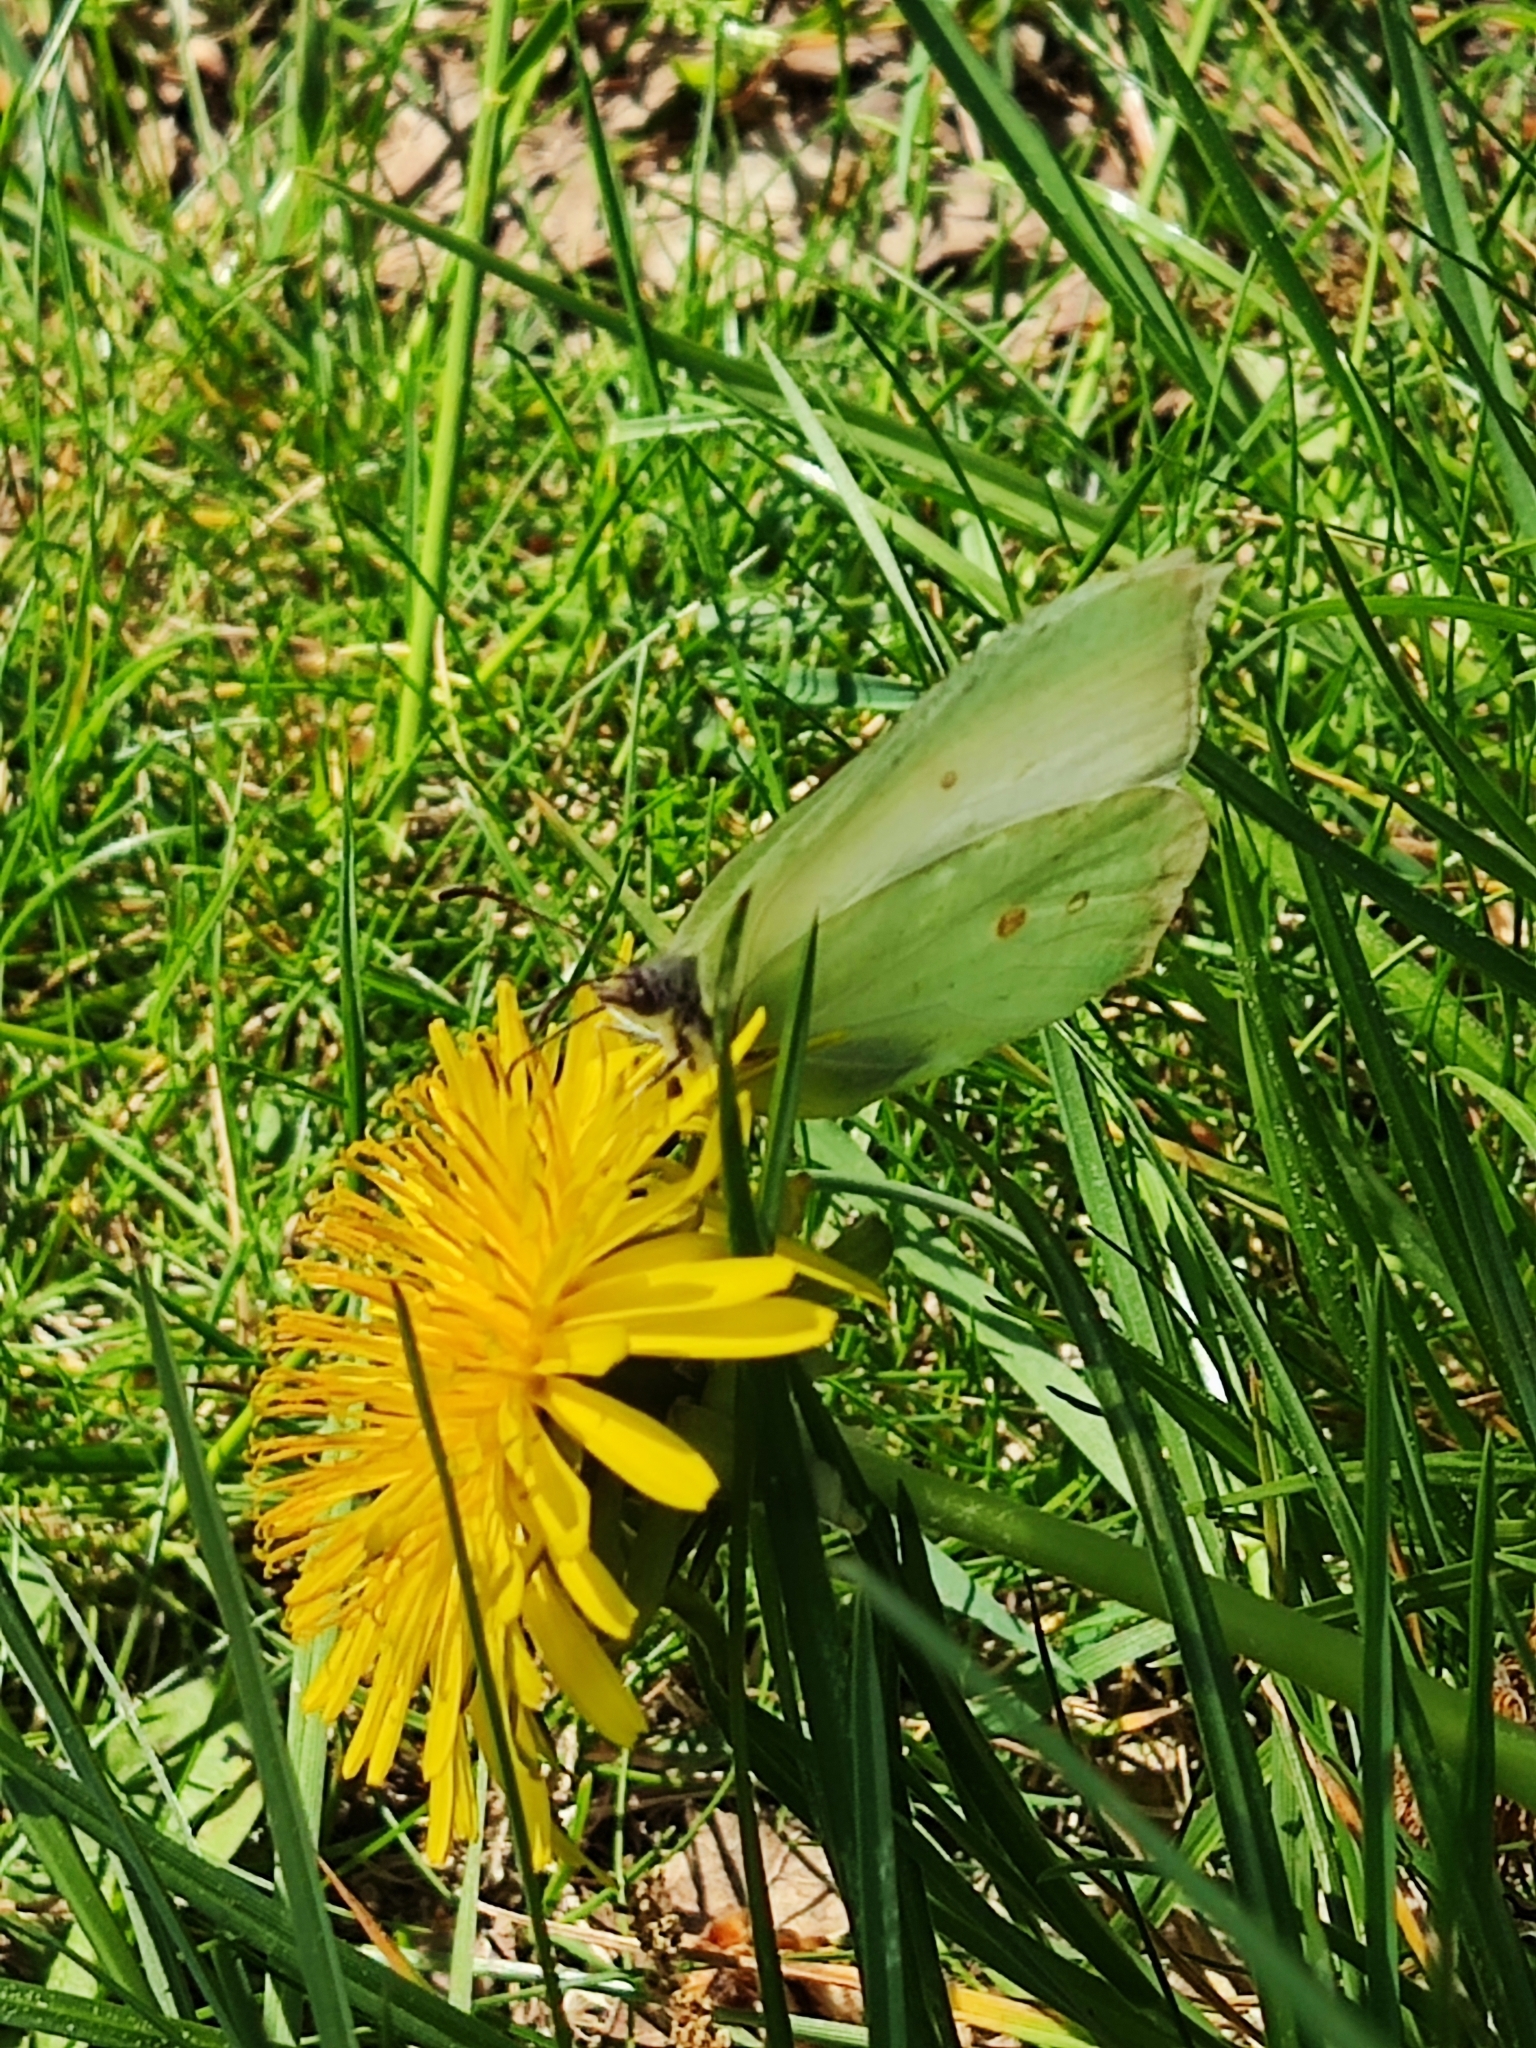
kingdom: Animalia
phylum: Arthropoda
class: Insecta
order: Lepidoptera
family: Pieridae
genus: Gonepteryx
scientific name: Gonepteryx rhamni
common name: Brimstone
